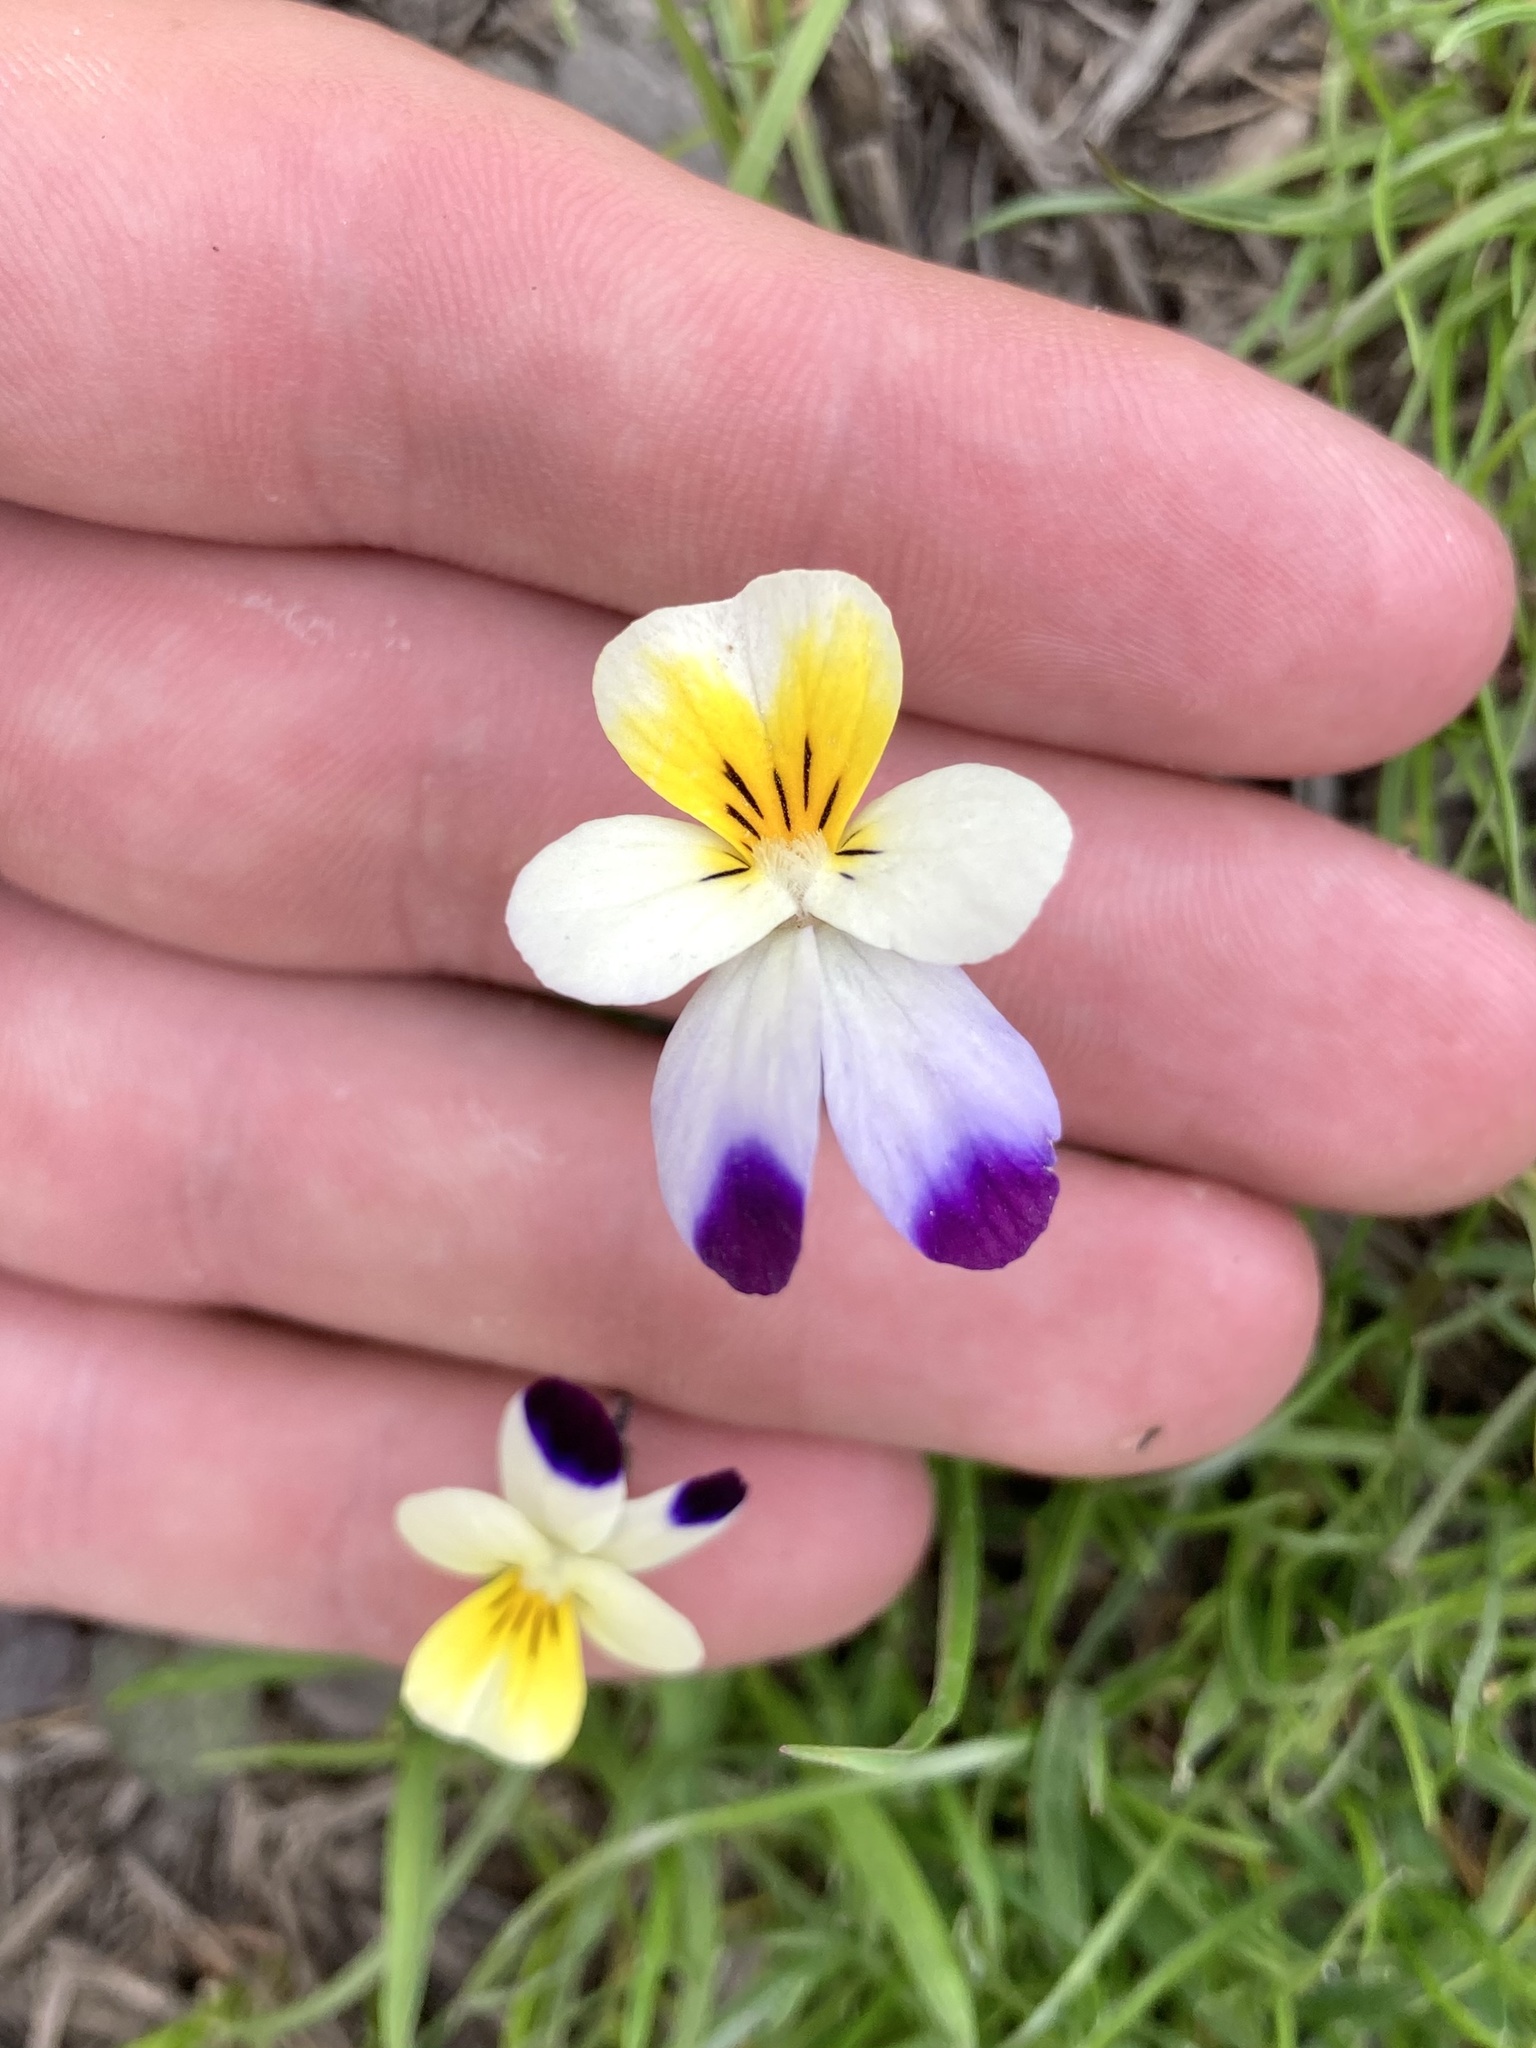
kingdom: Plantae
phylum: Tracheophyta
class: Magnoliopsida
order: Malpighiales
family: Violaceae
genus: Viola
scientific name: Viola arvensis
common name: Field pansy
